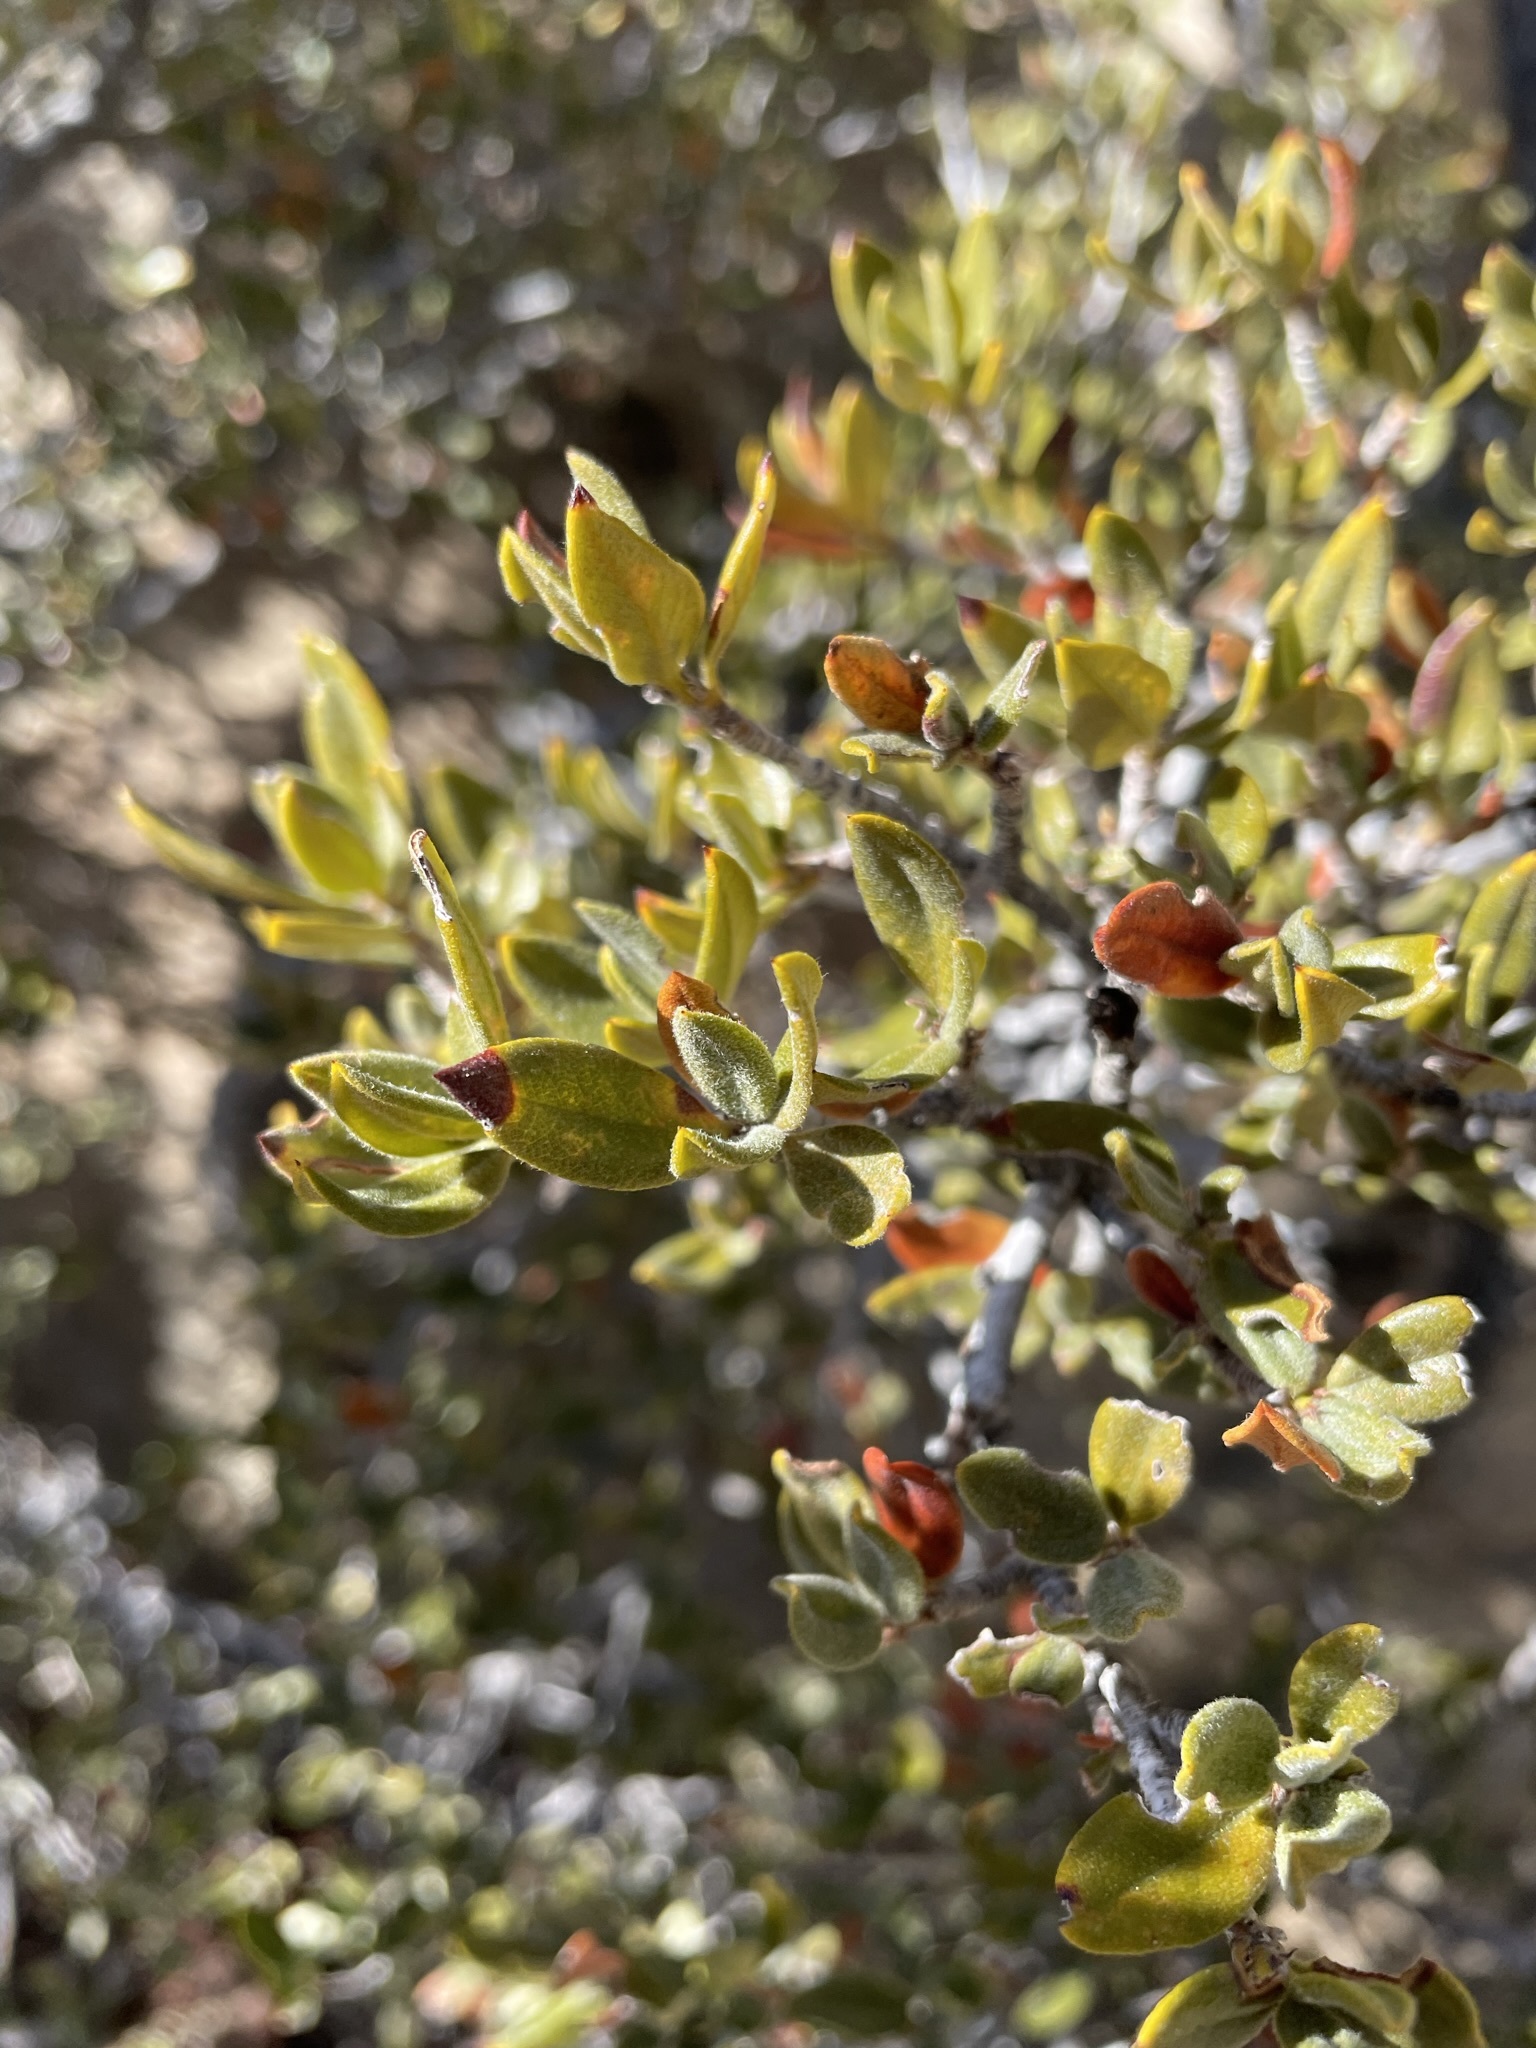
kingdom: Plantae
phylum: Tracheophyta
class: Magnoliopsida
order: Rosales
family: Rosaceae
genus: Cercocarpus
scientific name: Cercocarpus ledifolius
